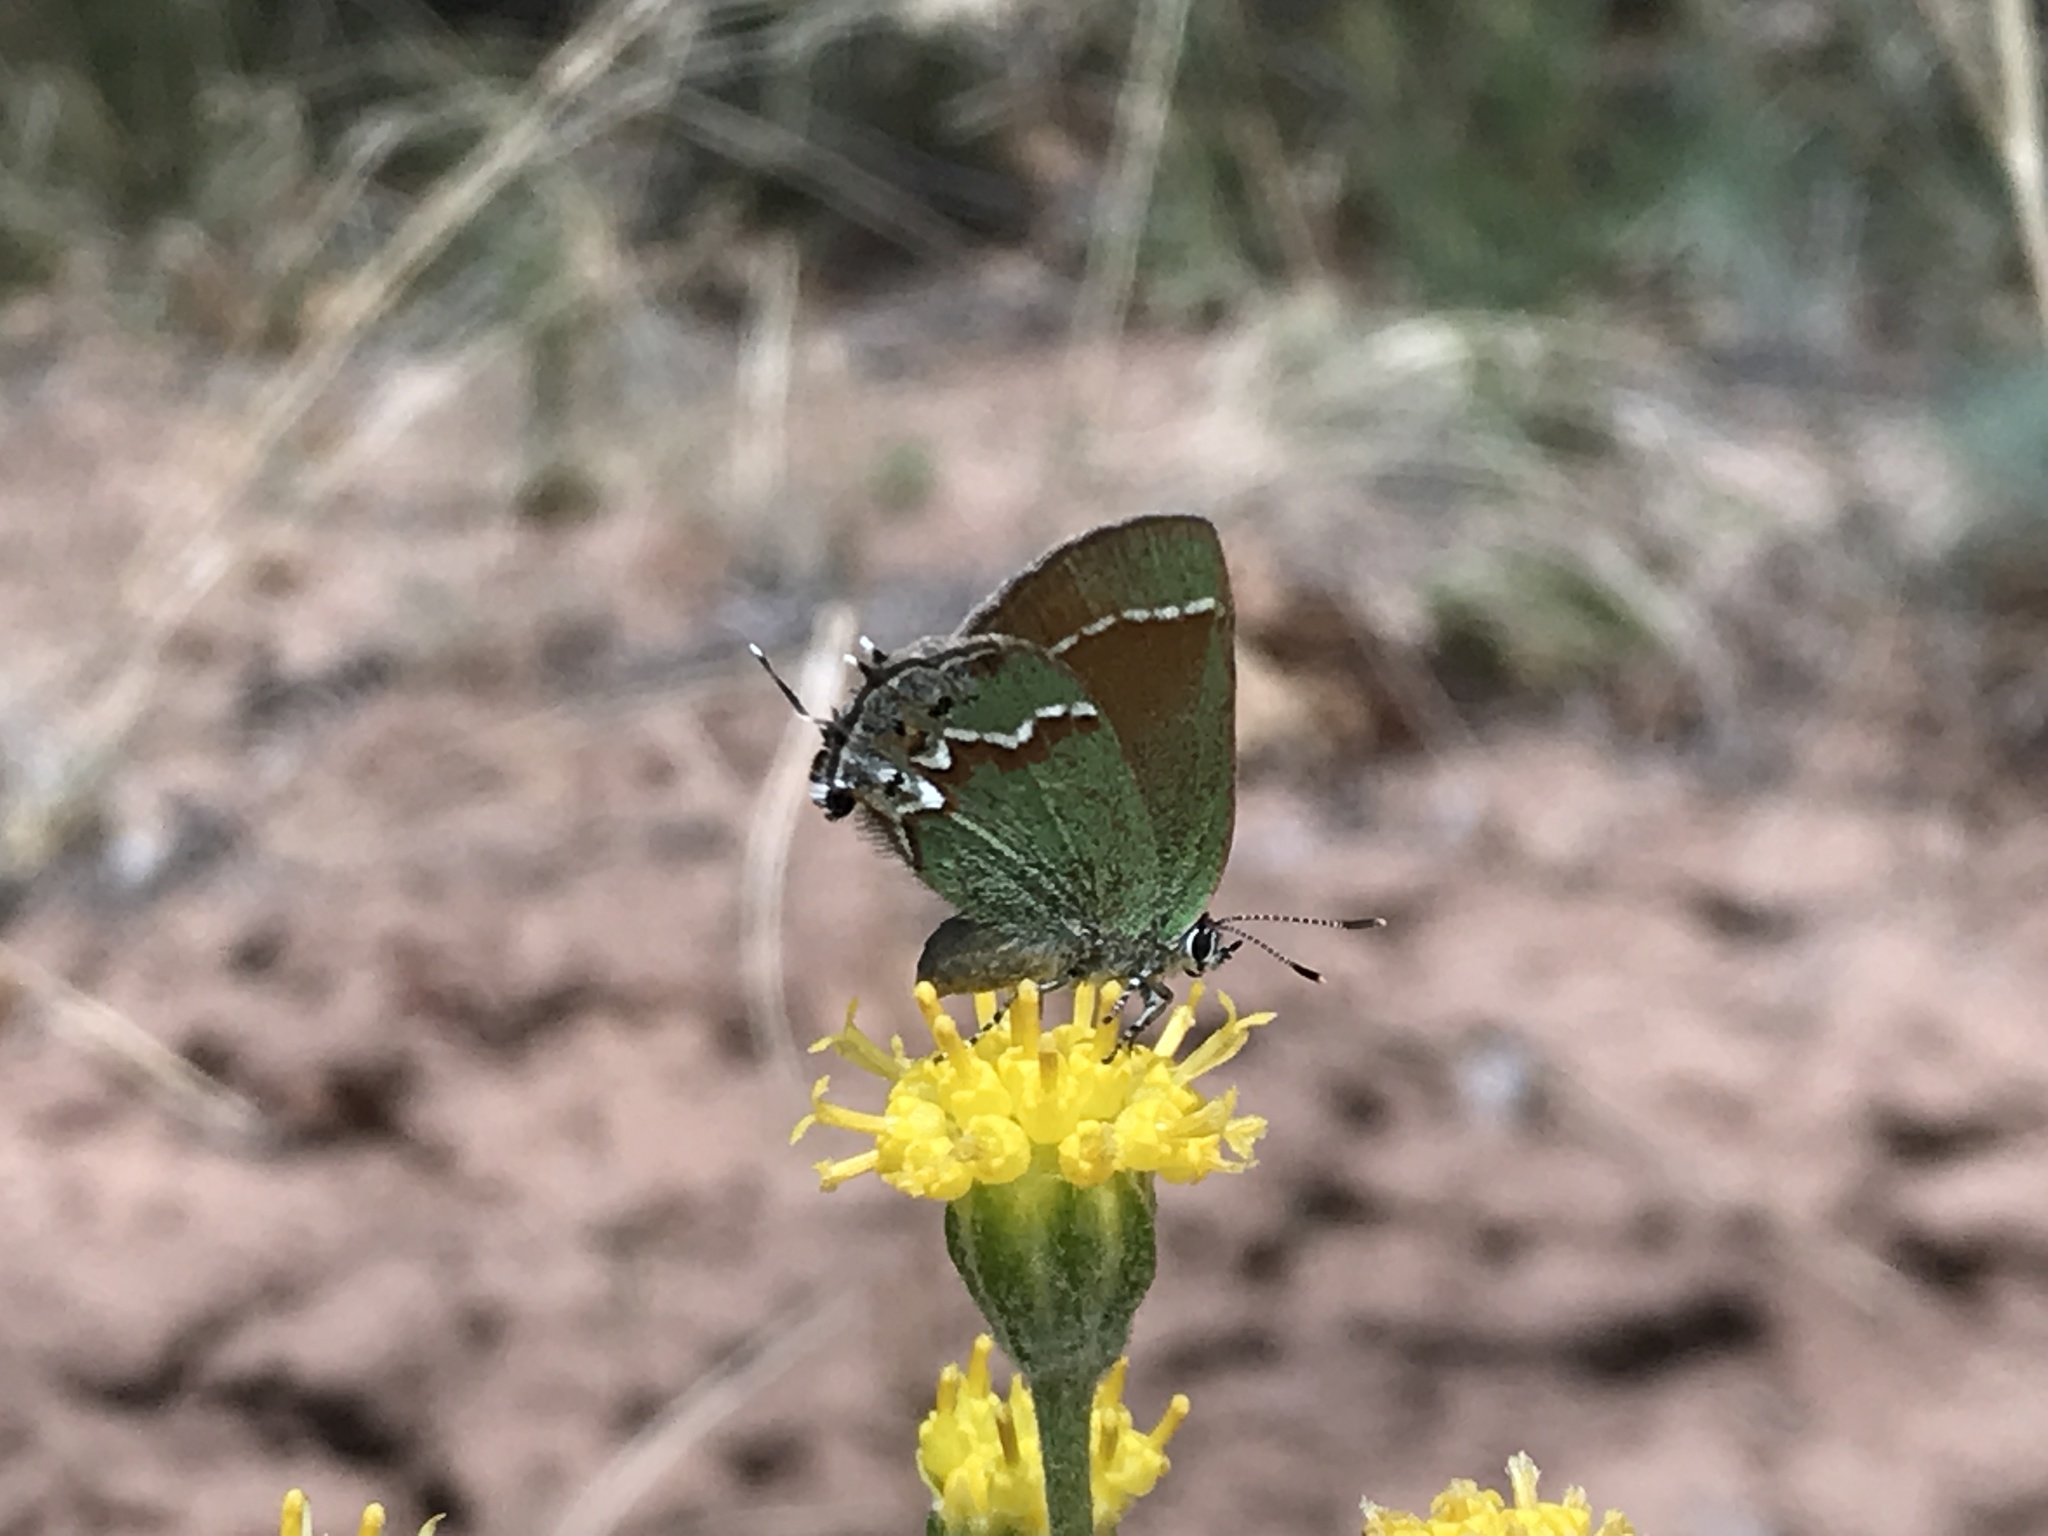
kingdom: Animalia
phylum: Arthropoda
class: Insecta
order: Lepidoptera
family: Lycaenidae
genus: Mitoura
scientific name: Mitoura siva
